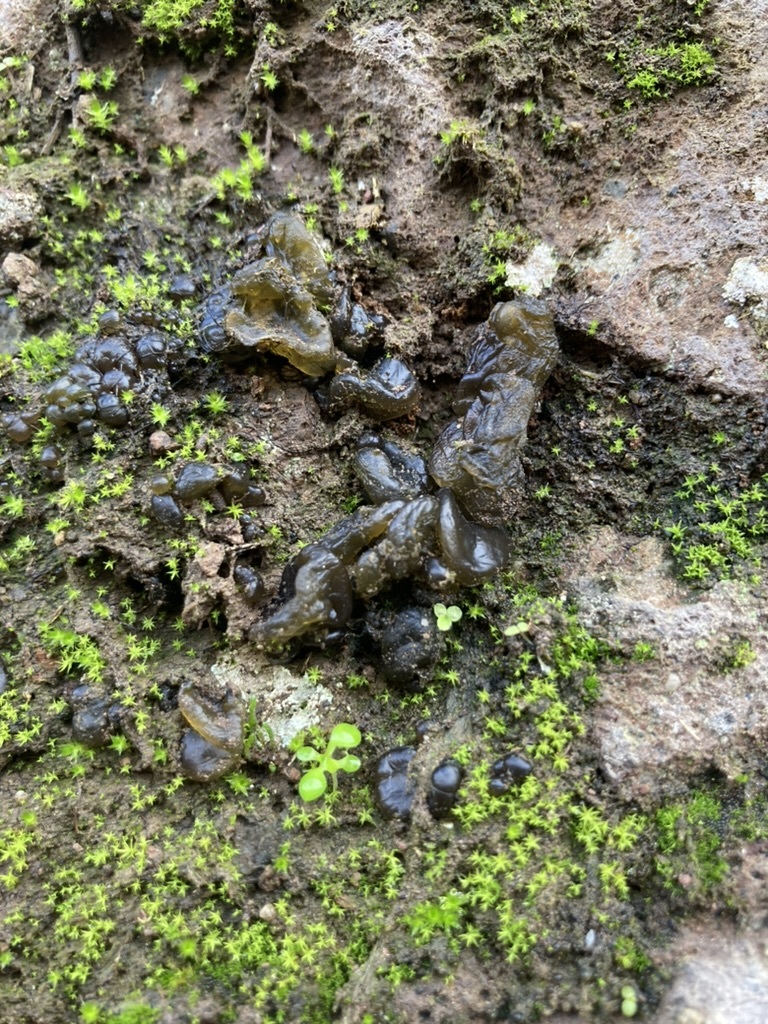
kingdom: Bacteria
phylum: Cyanobacteria
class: Cyanobacteriia
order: Cyanobacteriales
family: Nostocaceae
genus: Nostoc
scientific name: Nostoc commune
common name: Star jelly
